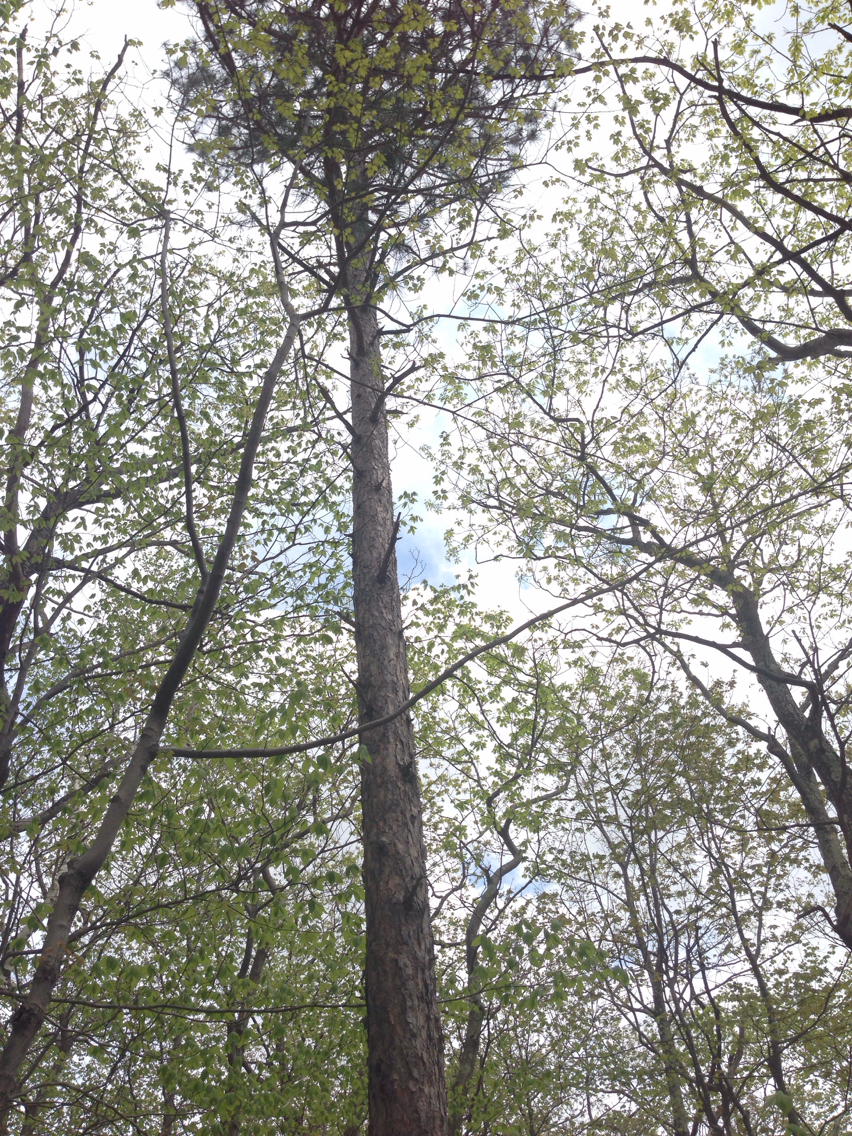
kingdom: Plantae
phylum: Tracheophyta
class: Pinopsida
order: Pinales
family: Pinaceae
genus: Pinus
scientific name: Pinus resinosa
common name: Norway pine
